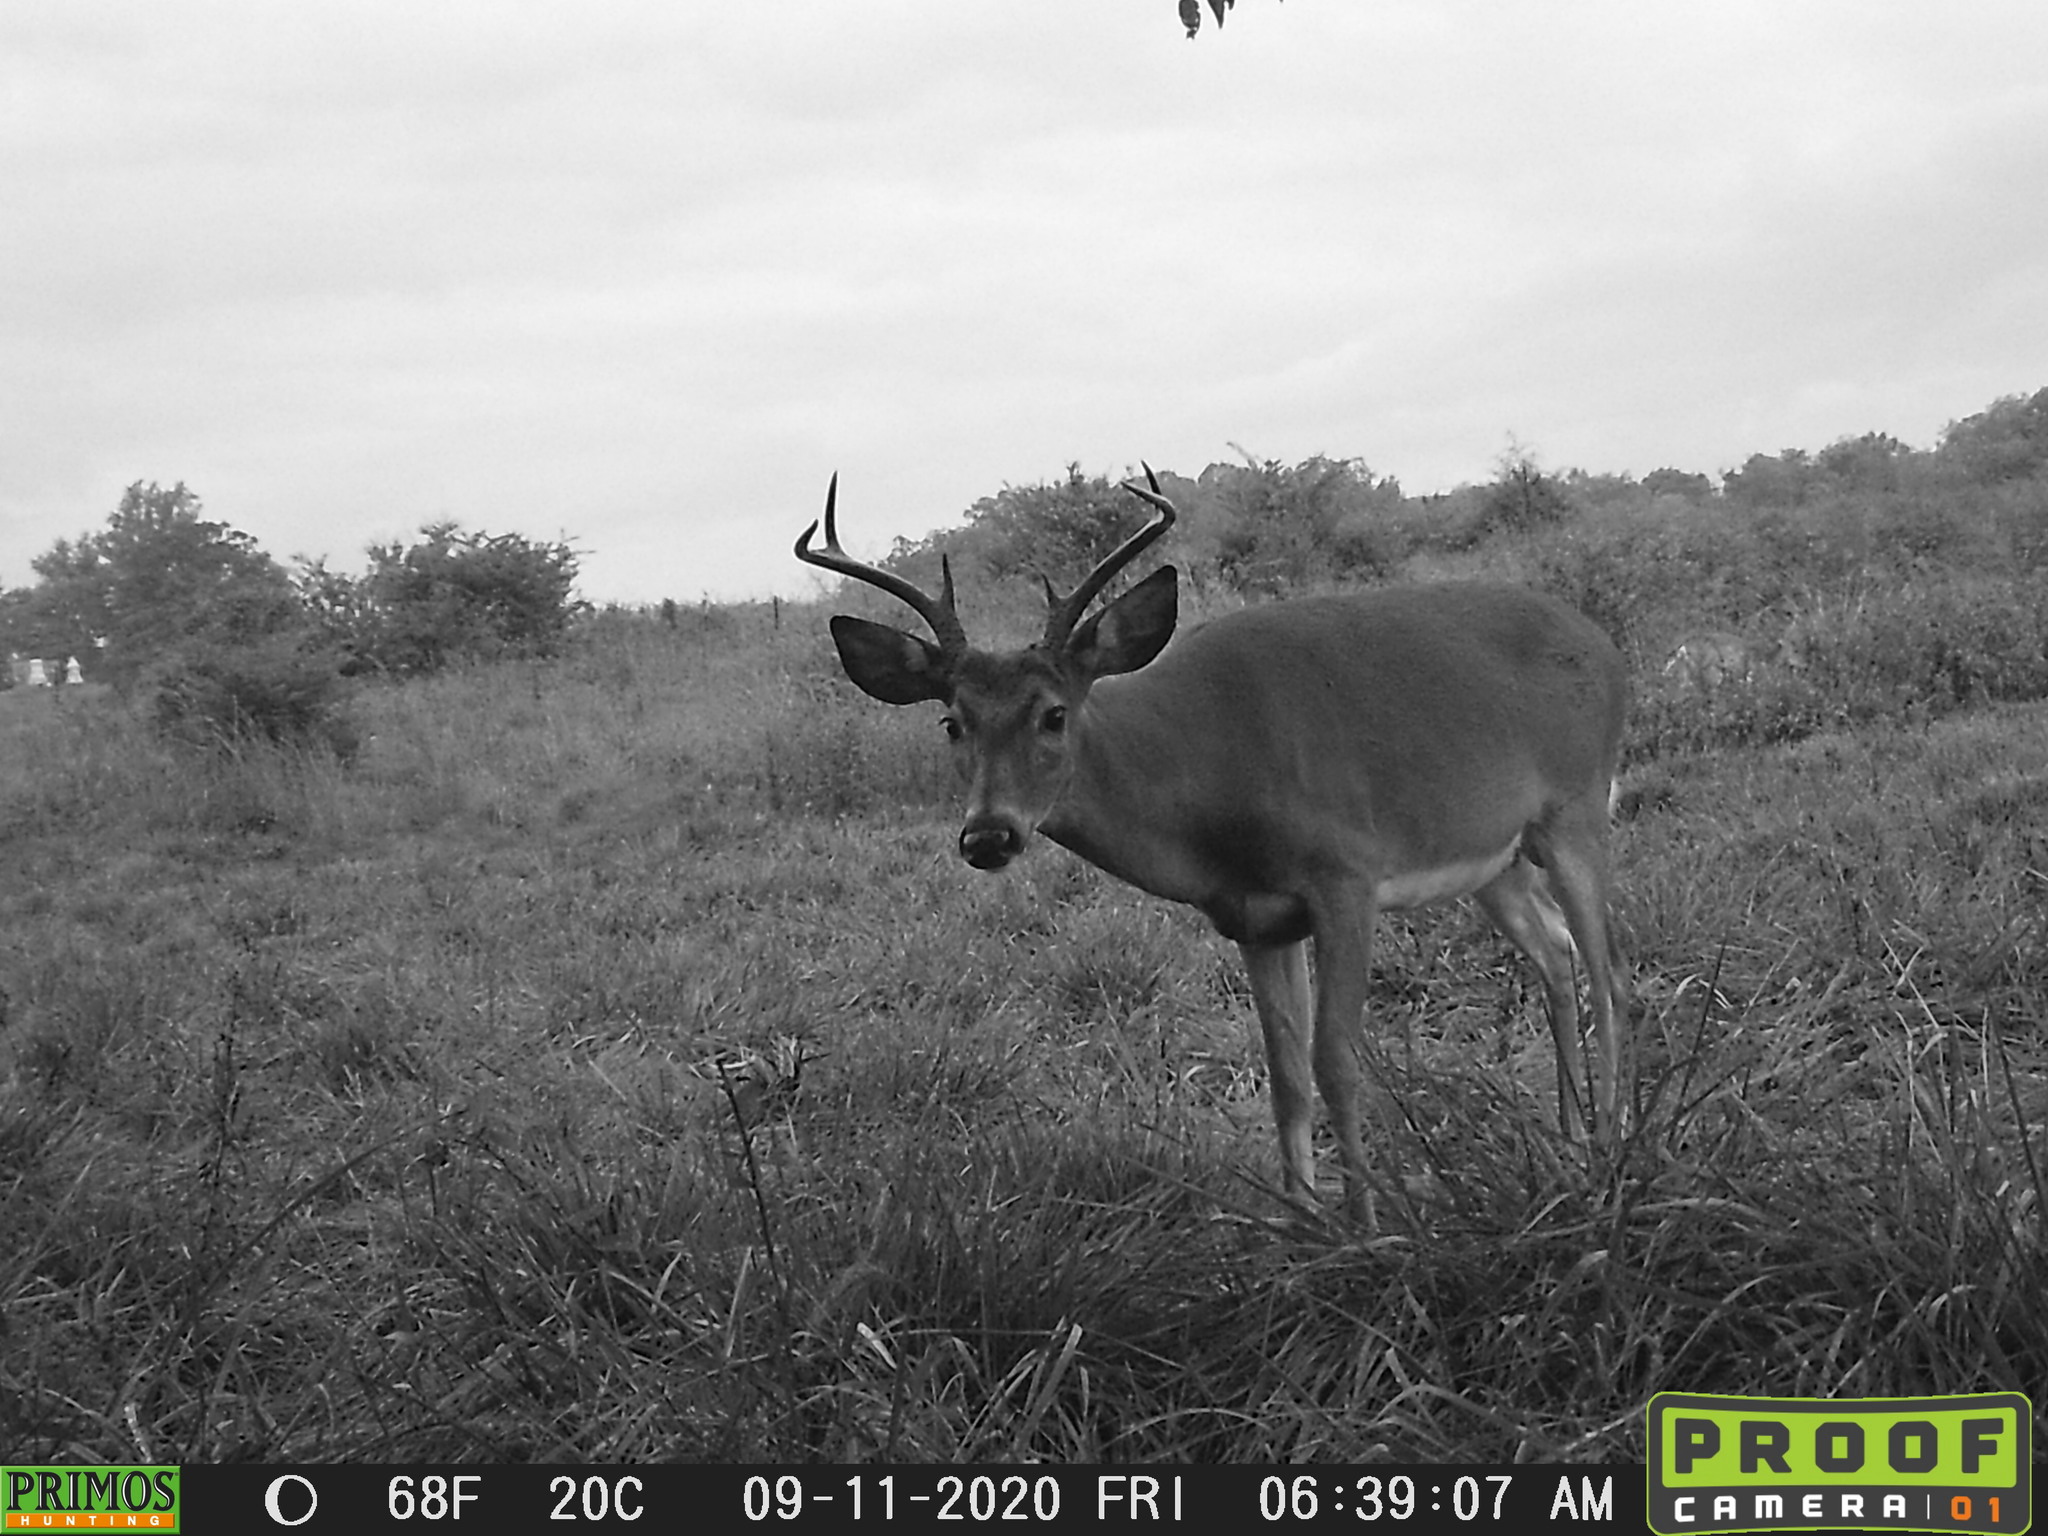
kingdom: Animalia
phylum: Chordata
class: Mammalia
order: Artiodactyla
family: Cervidae
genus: Odocoileus
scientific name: Odocoileus virginianus
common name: White-tailed deer
